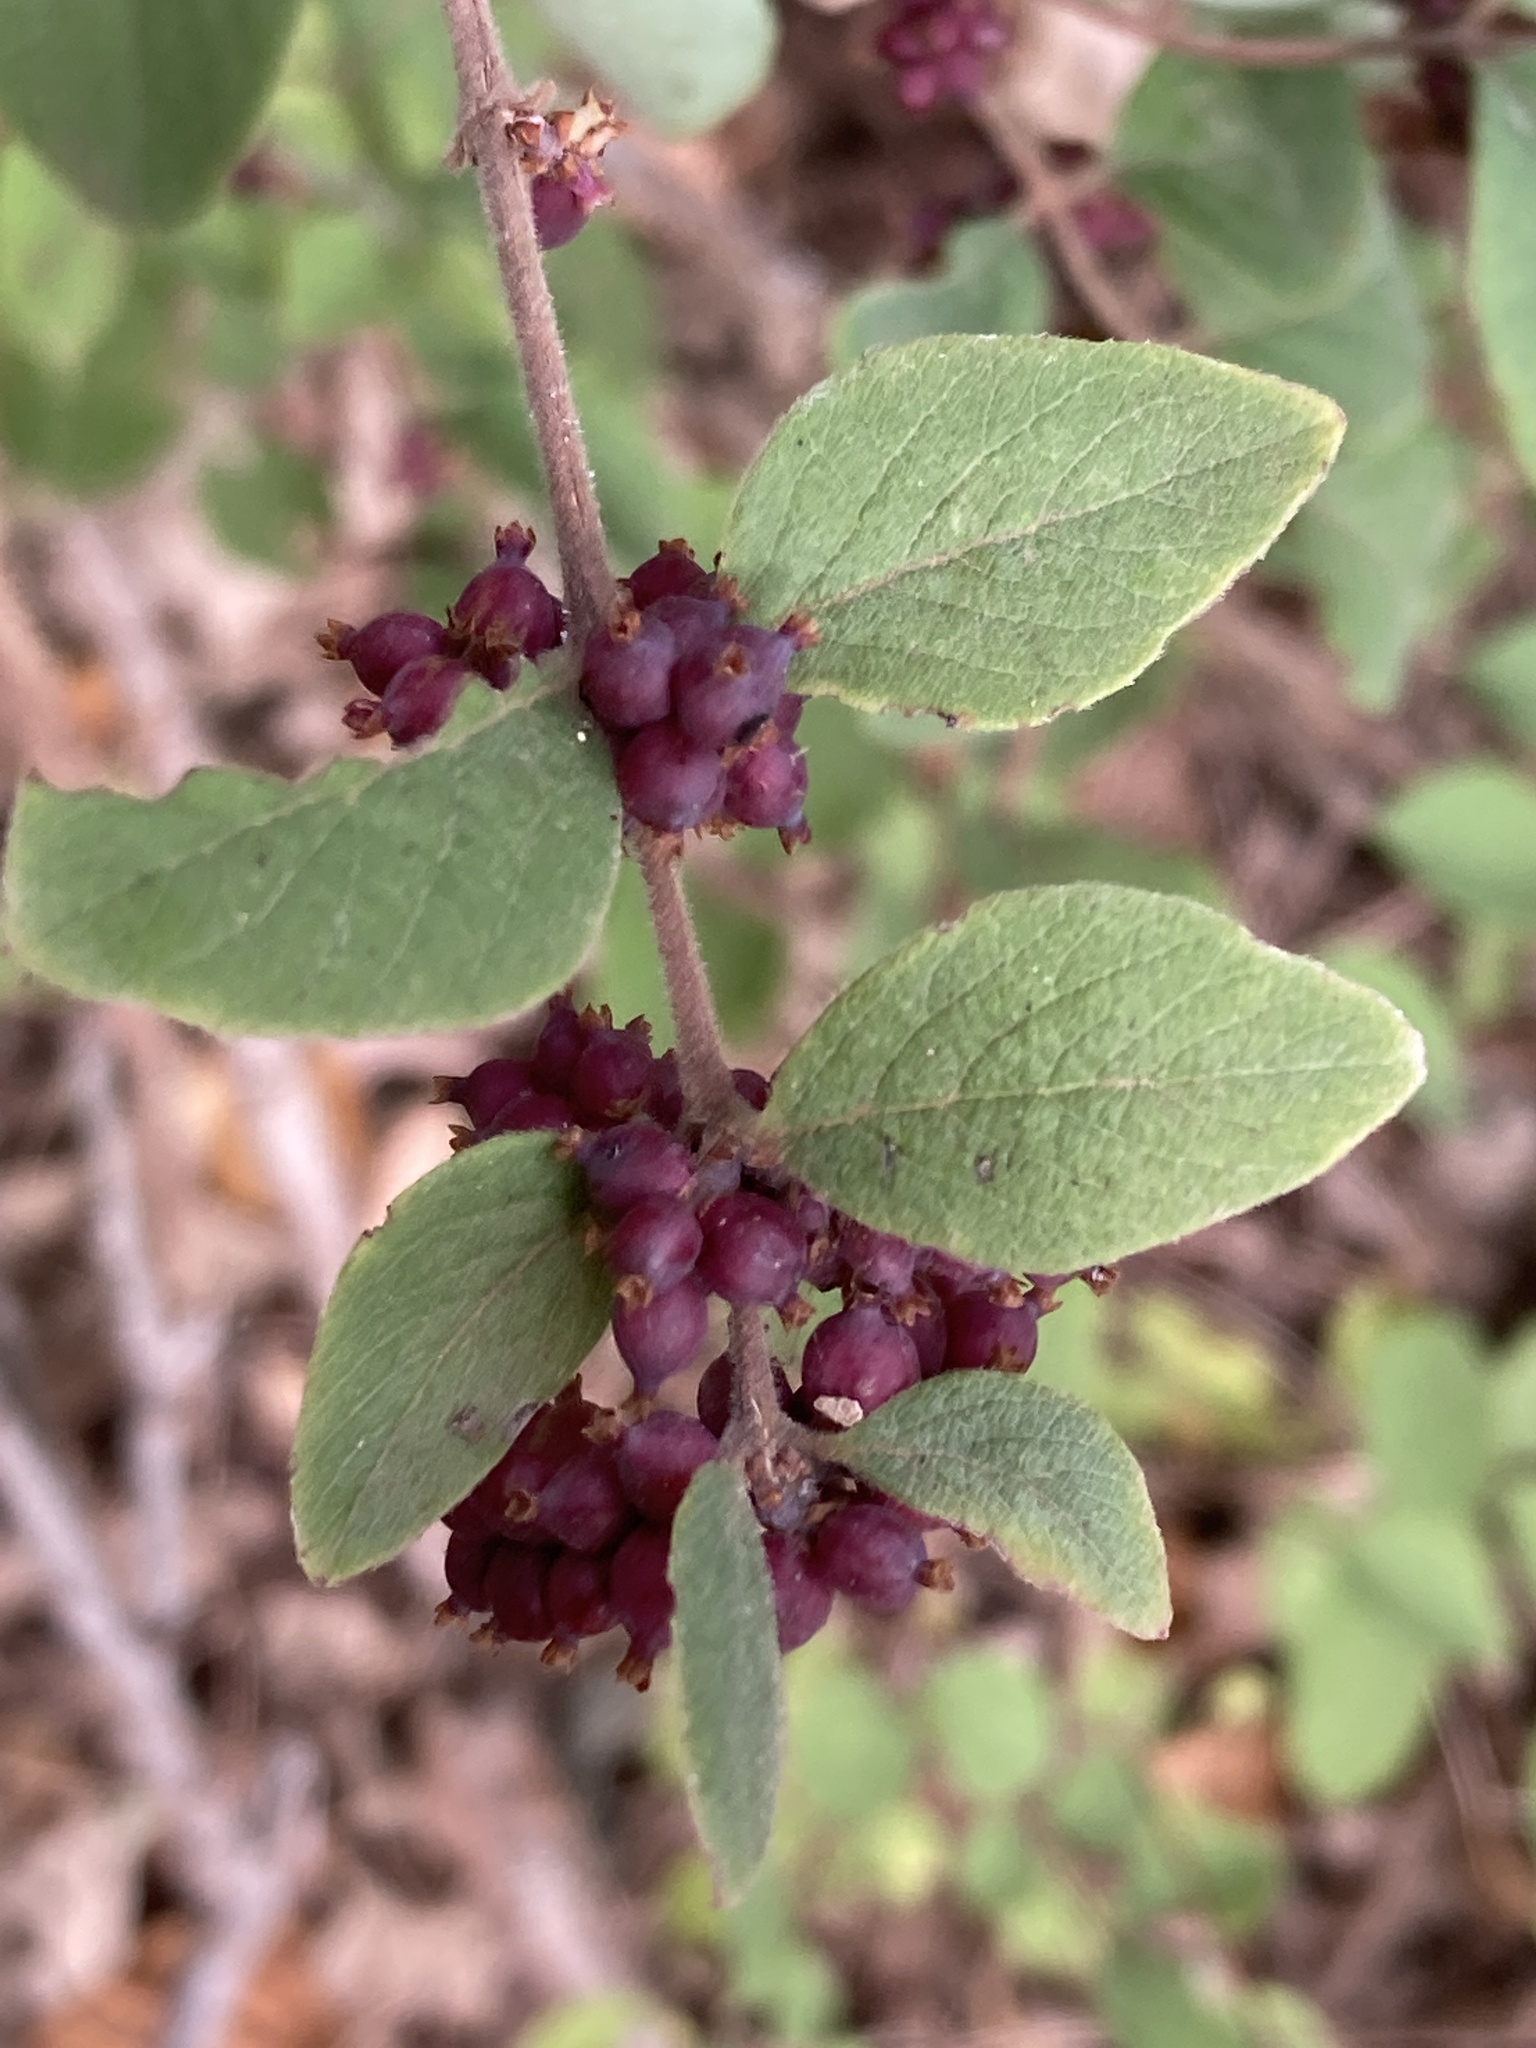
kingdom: Plantae
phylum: Tracheophyta
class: Magnoliopsida
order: Dipsacales
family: Caprifoliaceae
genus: Symphoricarpos
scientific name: Symphoricarpos orbiculatus
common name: Coralberry
